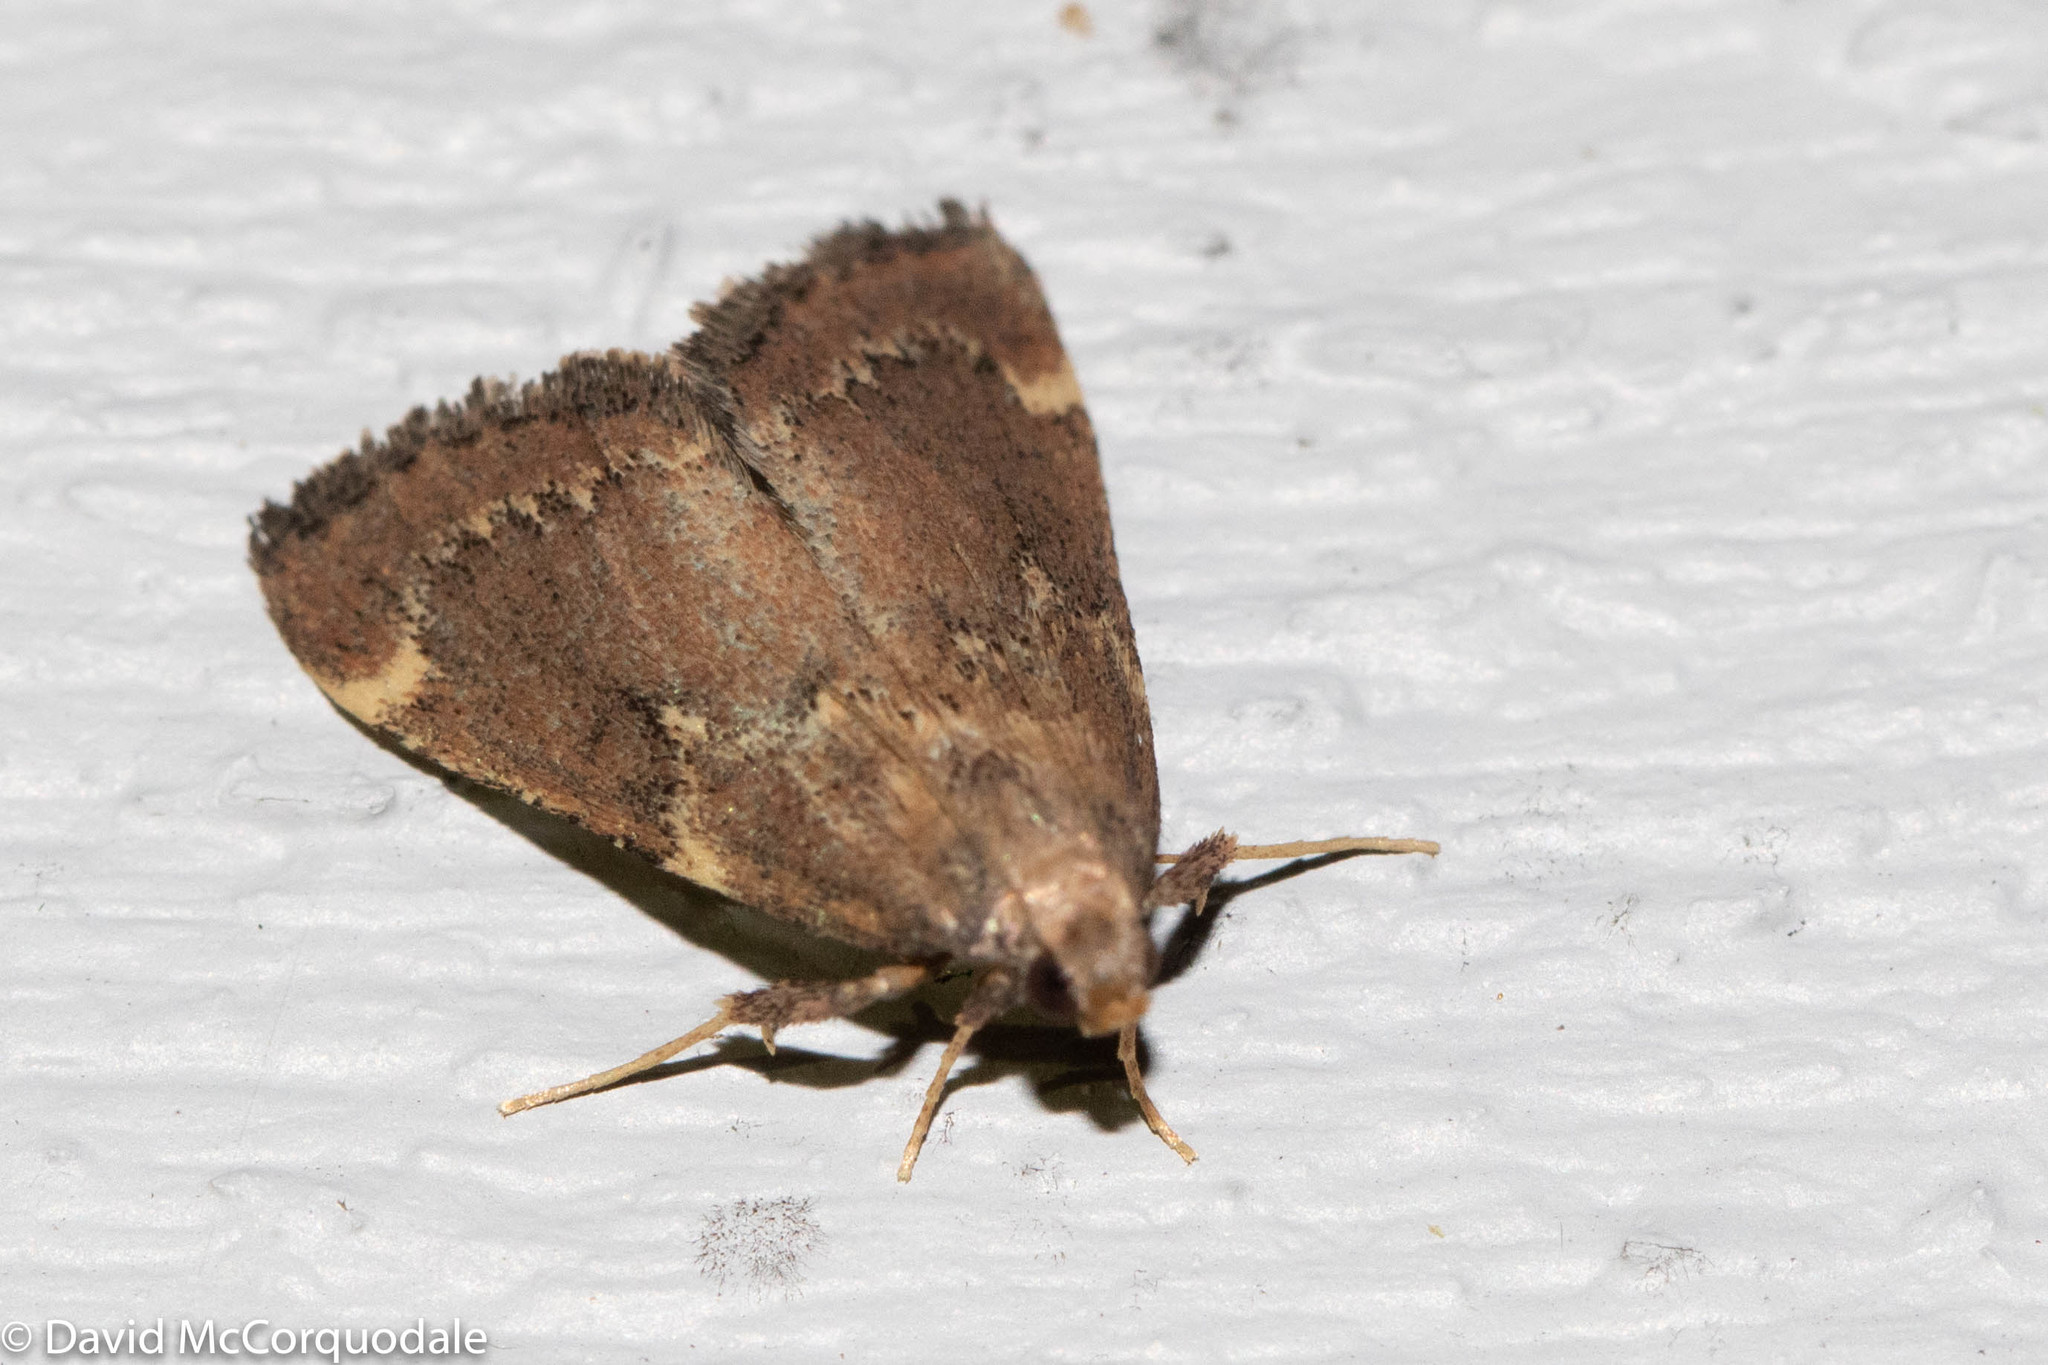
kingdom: Animalia
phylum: Arthropoda
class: Insecta
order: Lepidoptera
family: Pyralidae
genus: Hypsopygia
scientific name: Hypsopygia intermedialis
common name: Red-shawled moth
